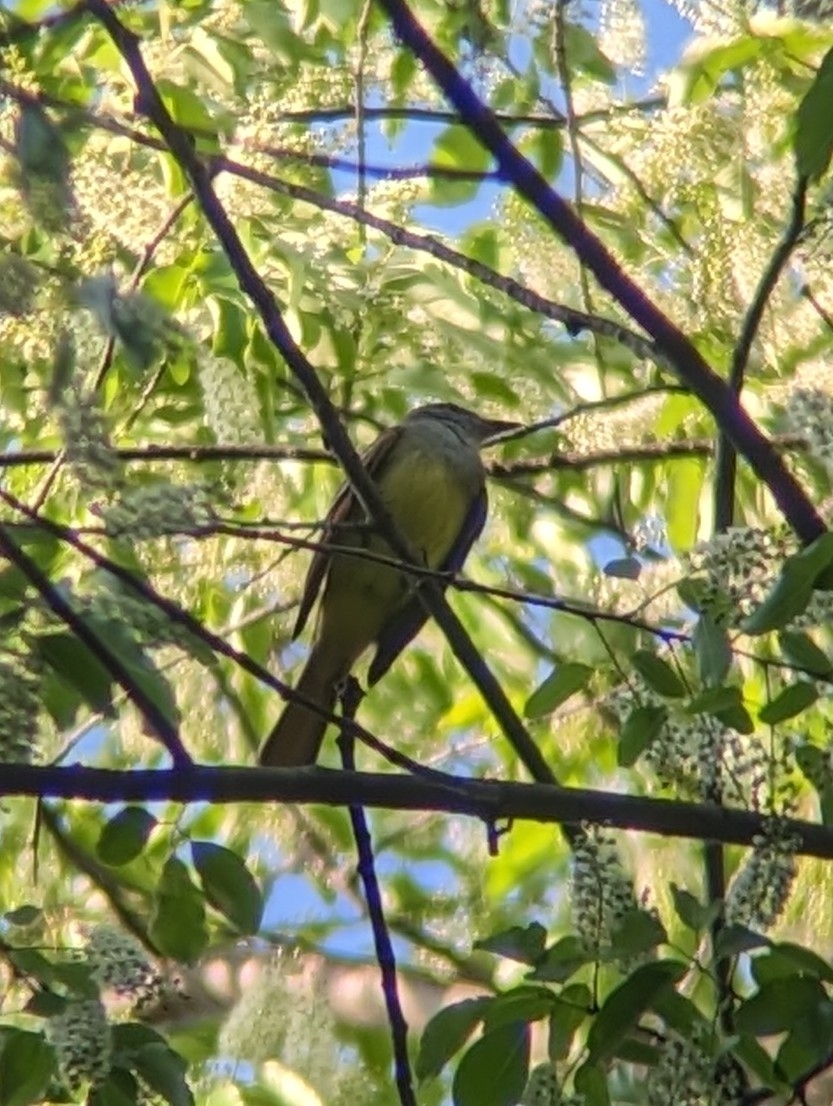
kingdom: Animalia
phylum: Chordata
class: Aves
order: Passeriformes
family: Tyrannidae
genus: Myiarchus
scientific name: Myiarchus crinitus
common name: Great crested flycatcher
